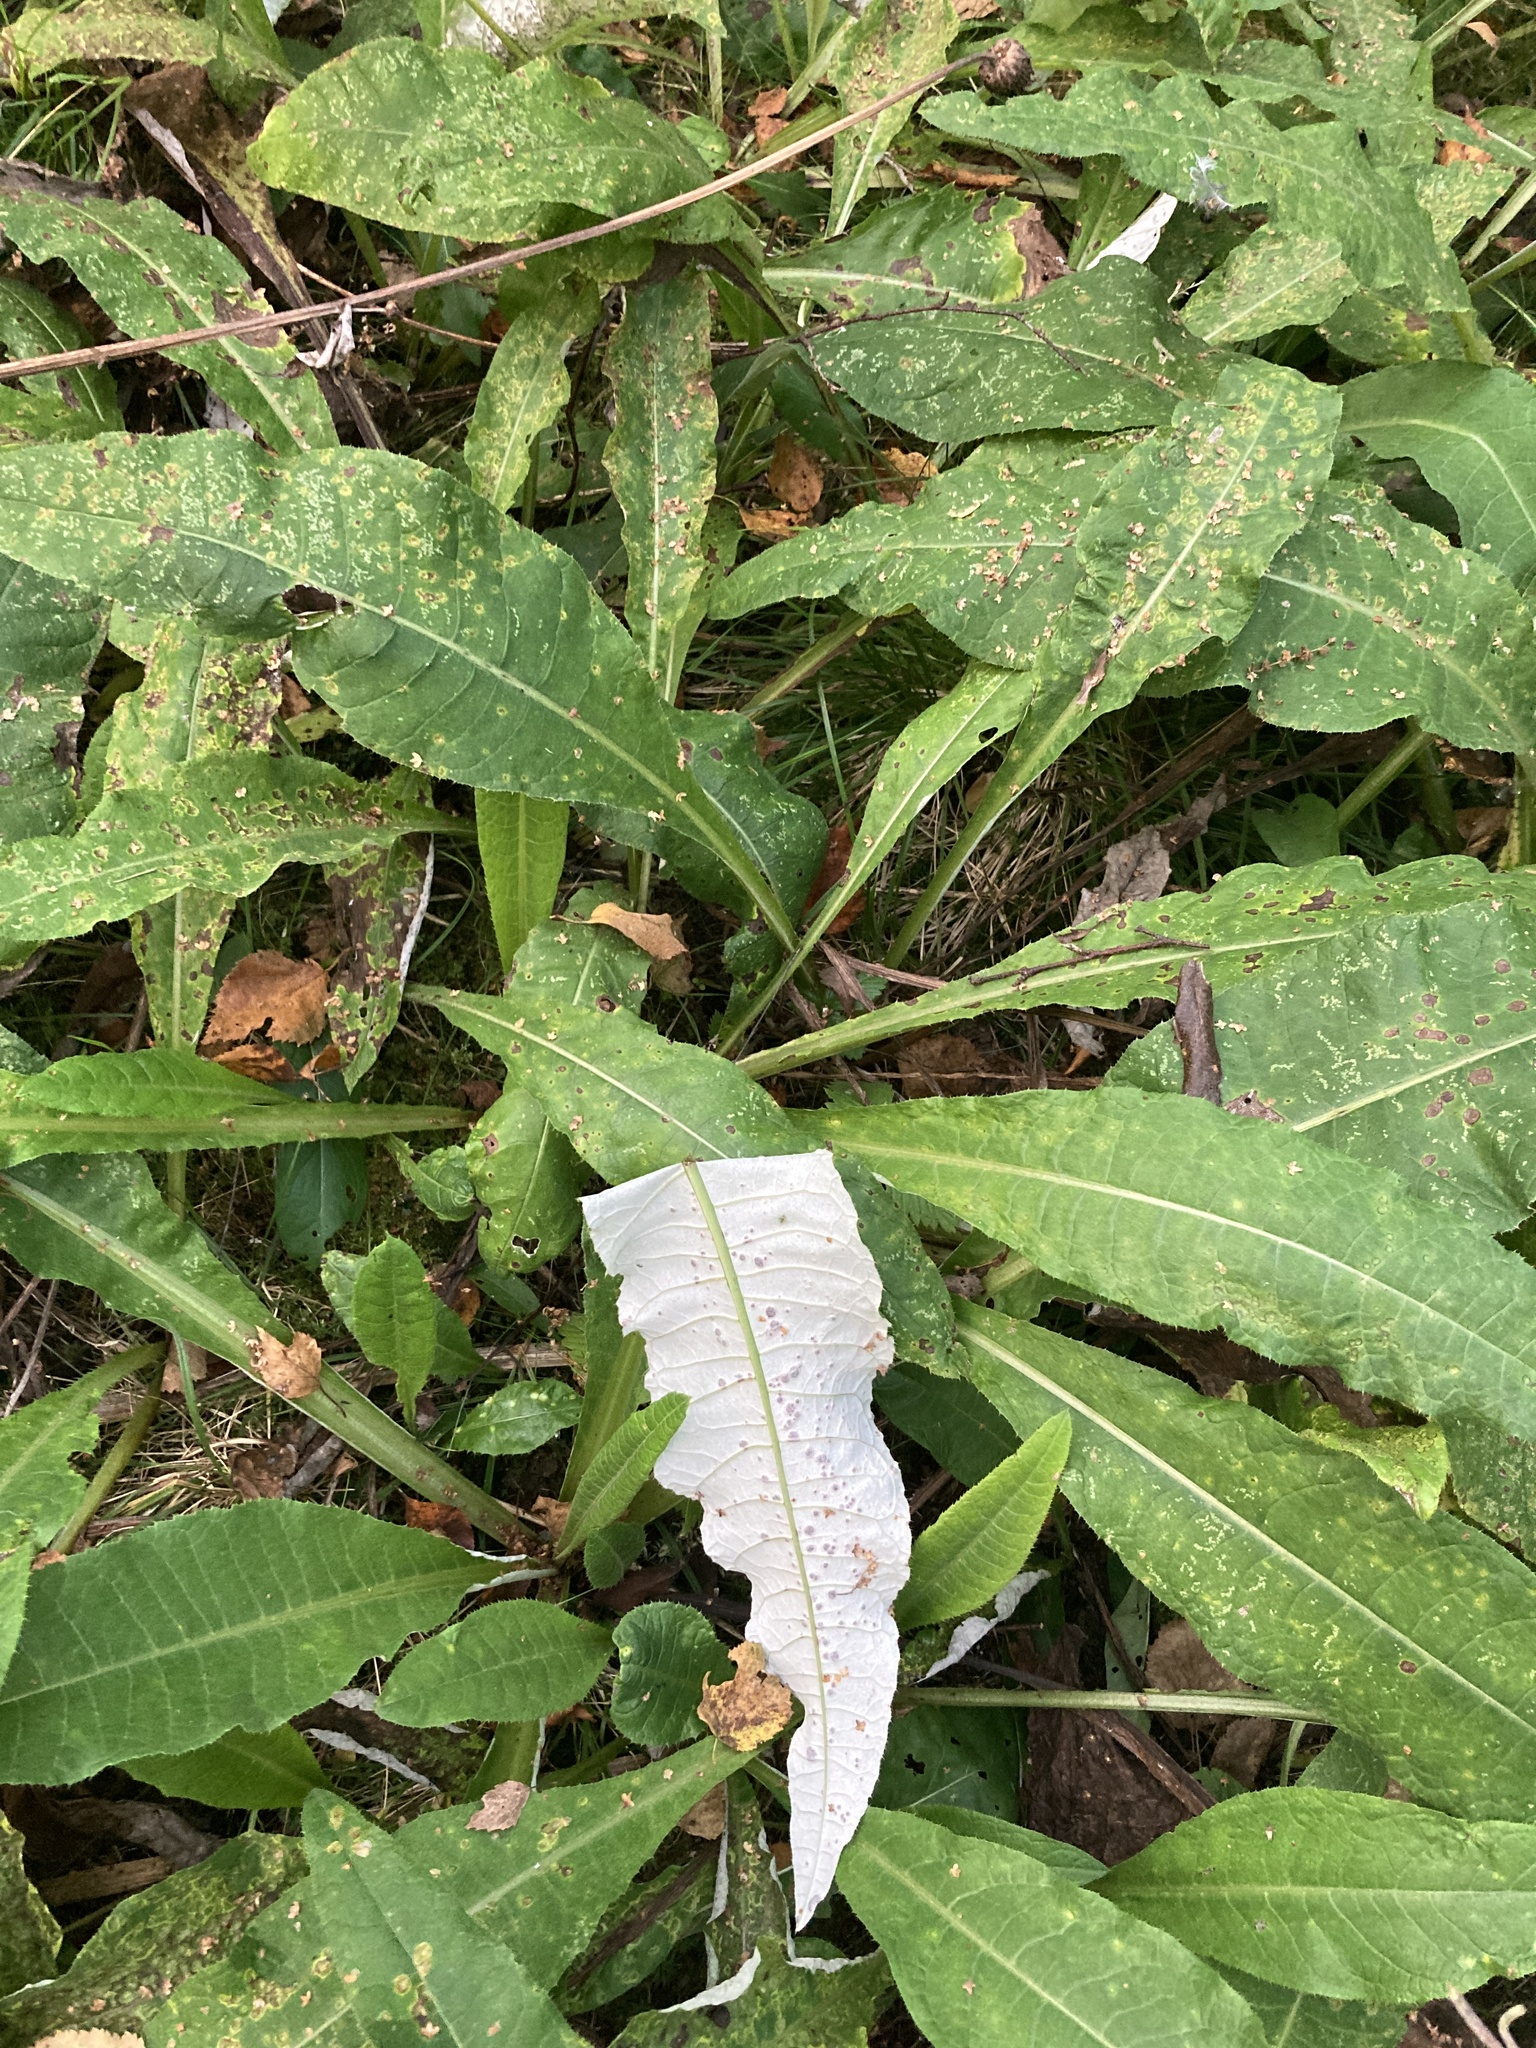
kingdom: Plantae
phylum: Tracheophyta
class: Magnoliopsida
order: Asterales
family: Asteraceae
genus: Cirsium
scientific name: Cirsium heterophyllum
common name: Melancholy thistle
